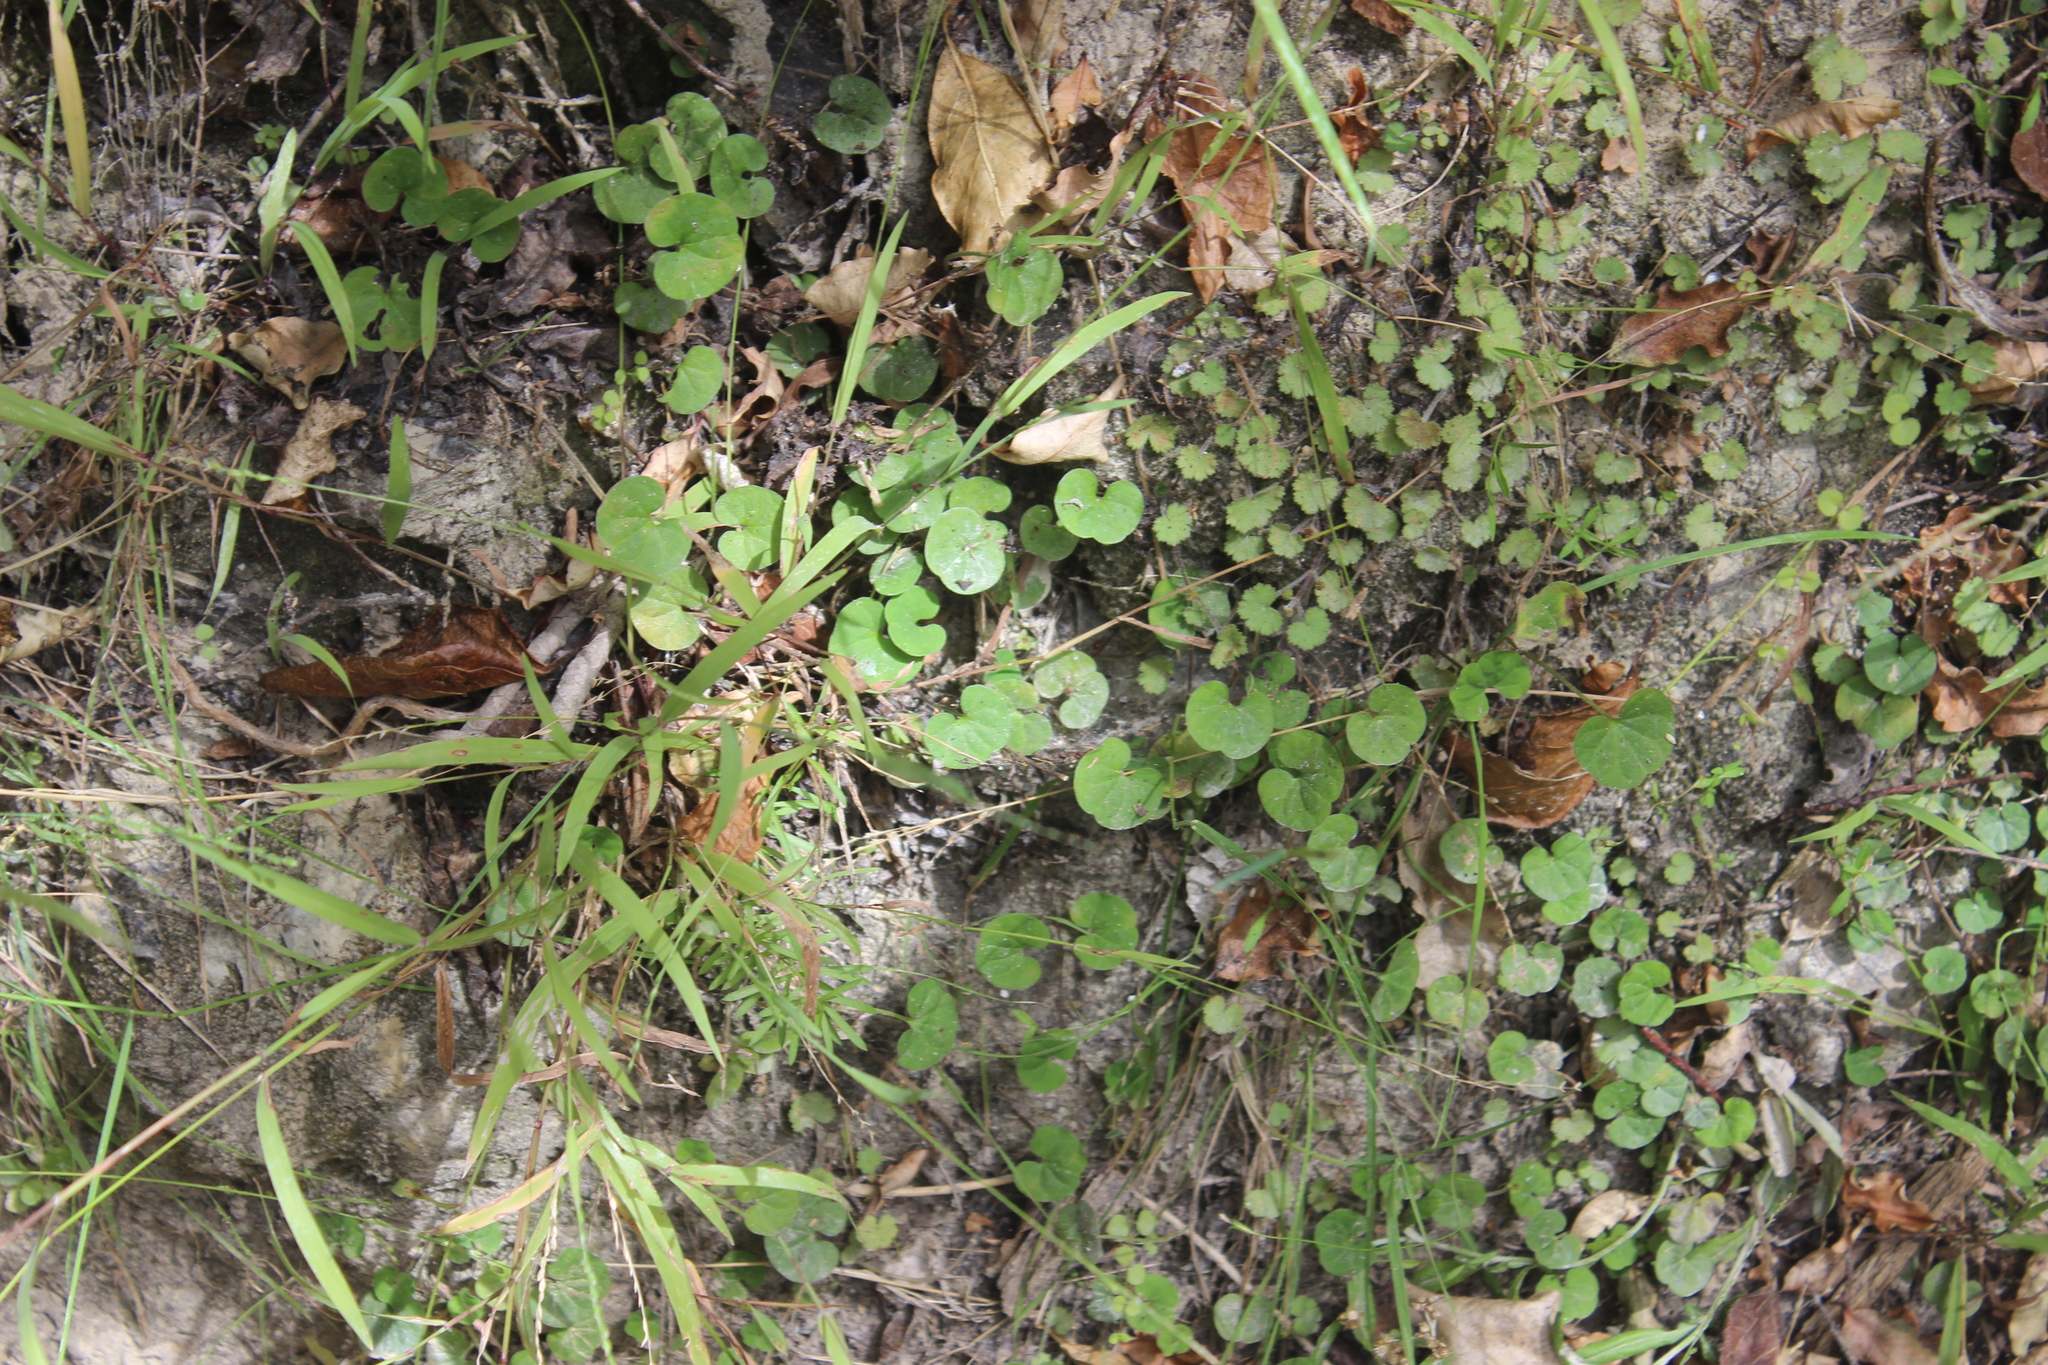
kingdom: Plantae
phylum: Tracheophyta
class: Magnoliopsida
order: Solanales
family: Convolvulaceae
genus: Dichondra
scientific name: Dichondra repens
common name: Kidneyweed
